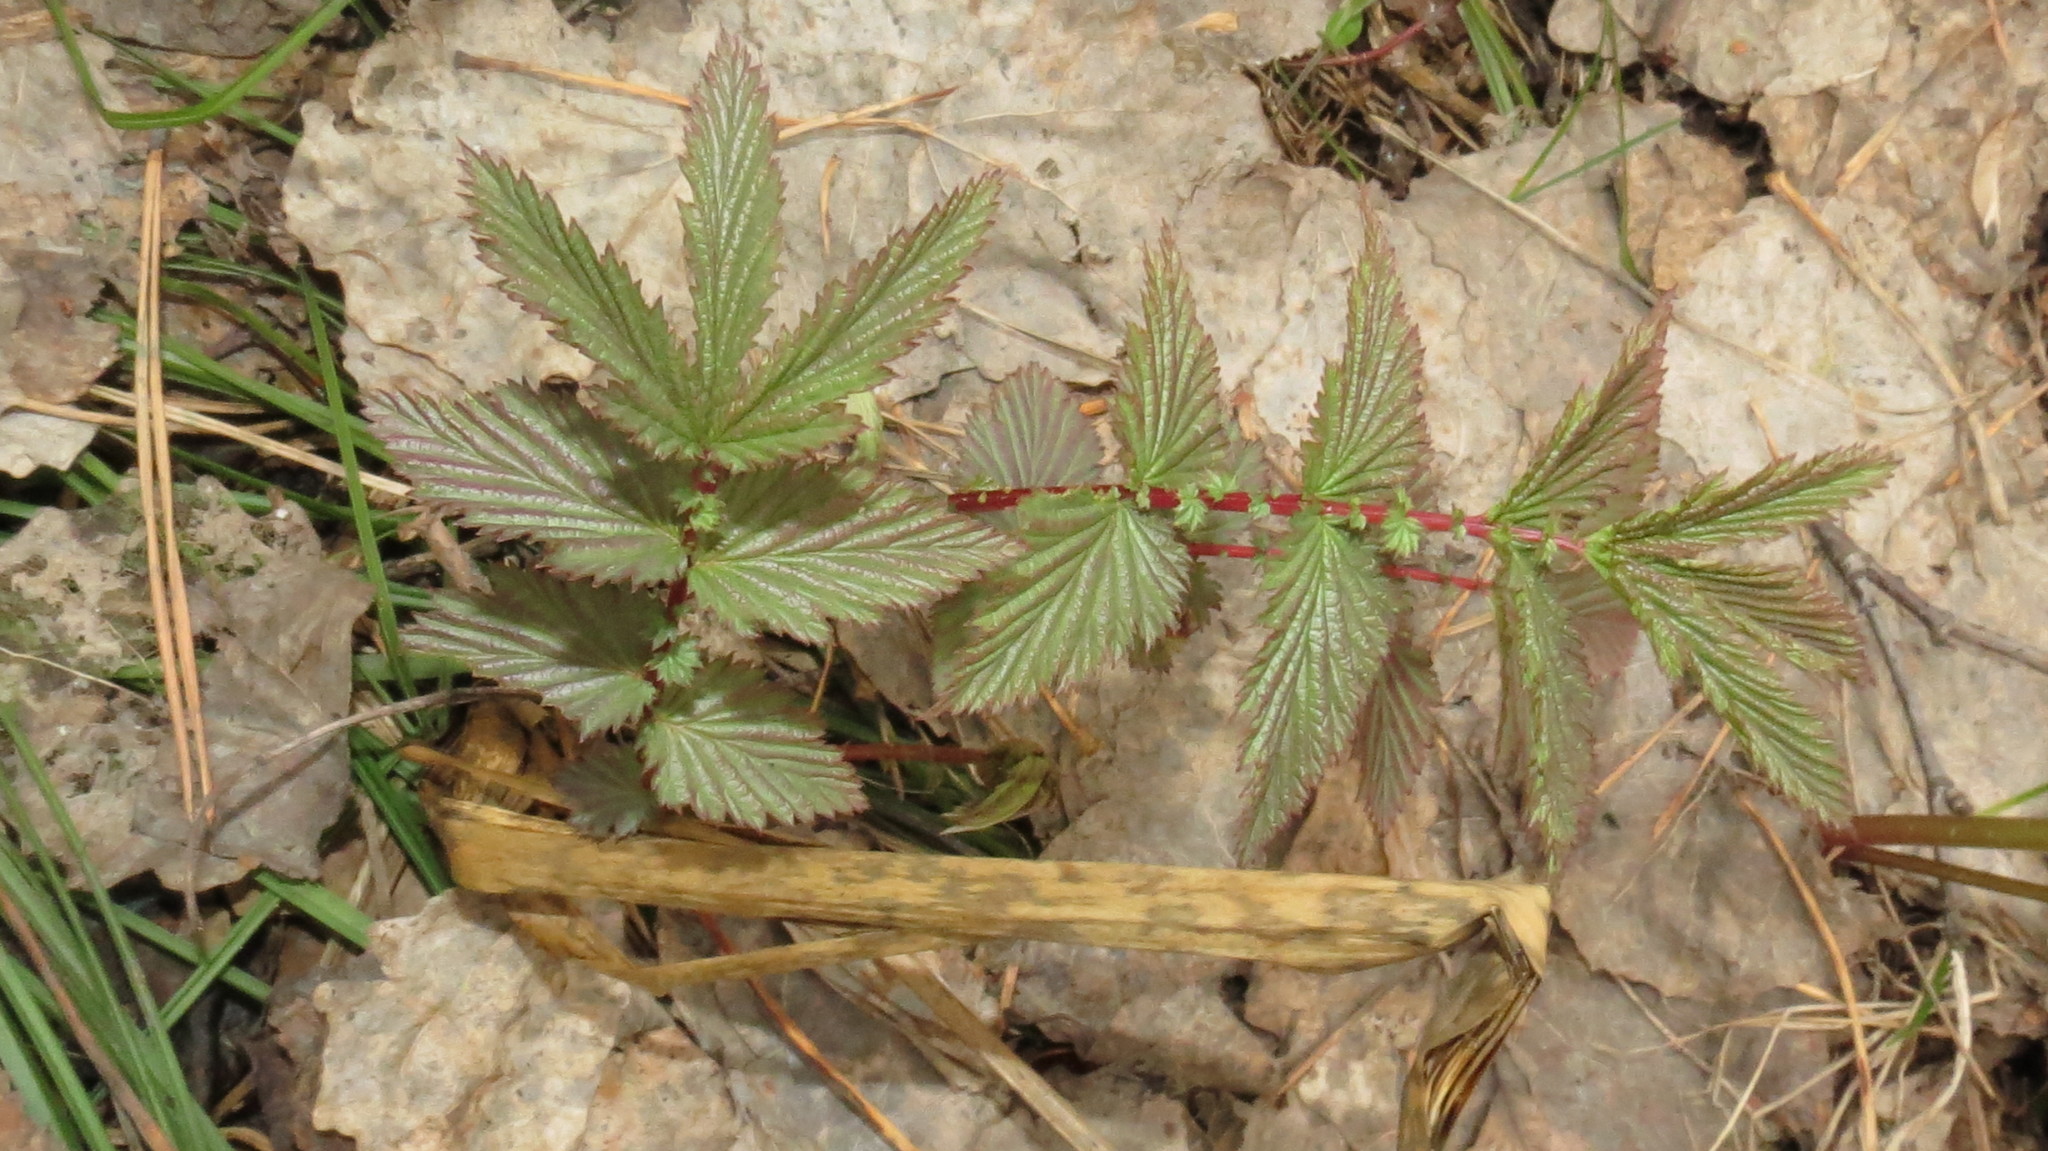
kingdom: Plantae
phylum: Tracheophyta
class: Magnoliopsida
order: Rosales
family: Rosaceae
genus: Filipendula
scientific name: Filipendula ulmaria
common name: Meadowsweet
